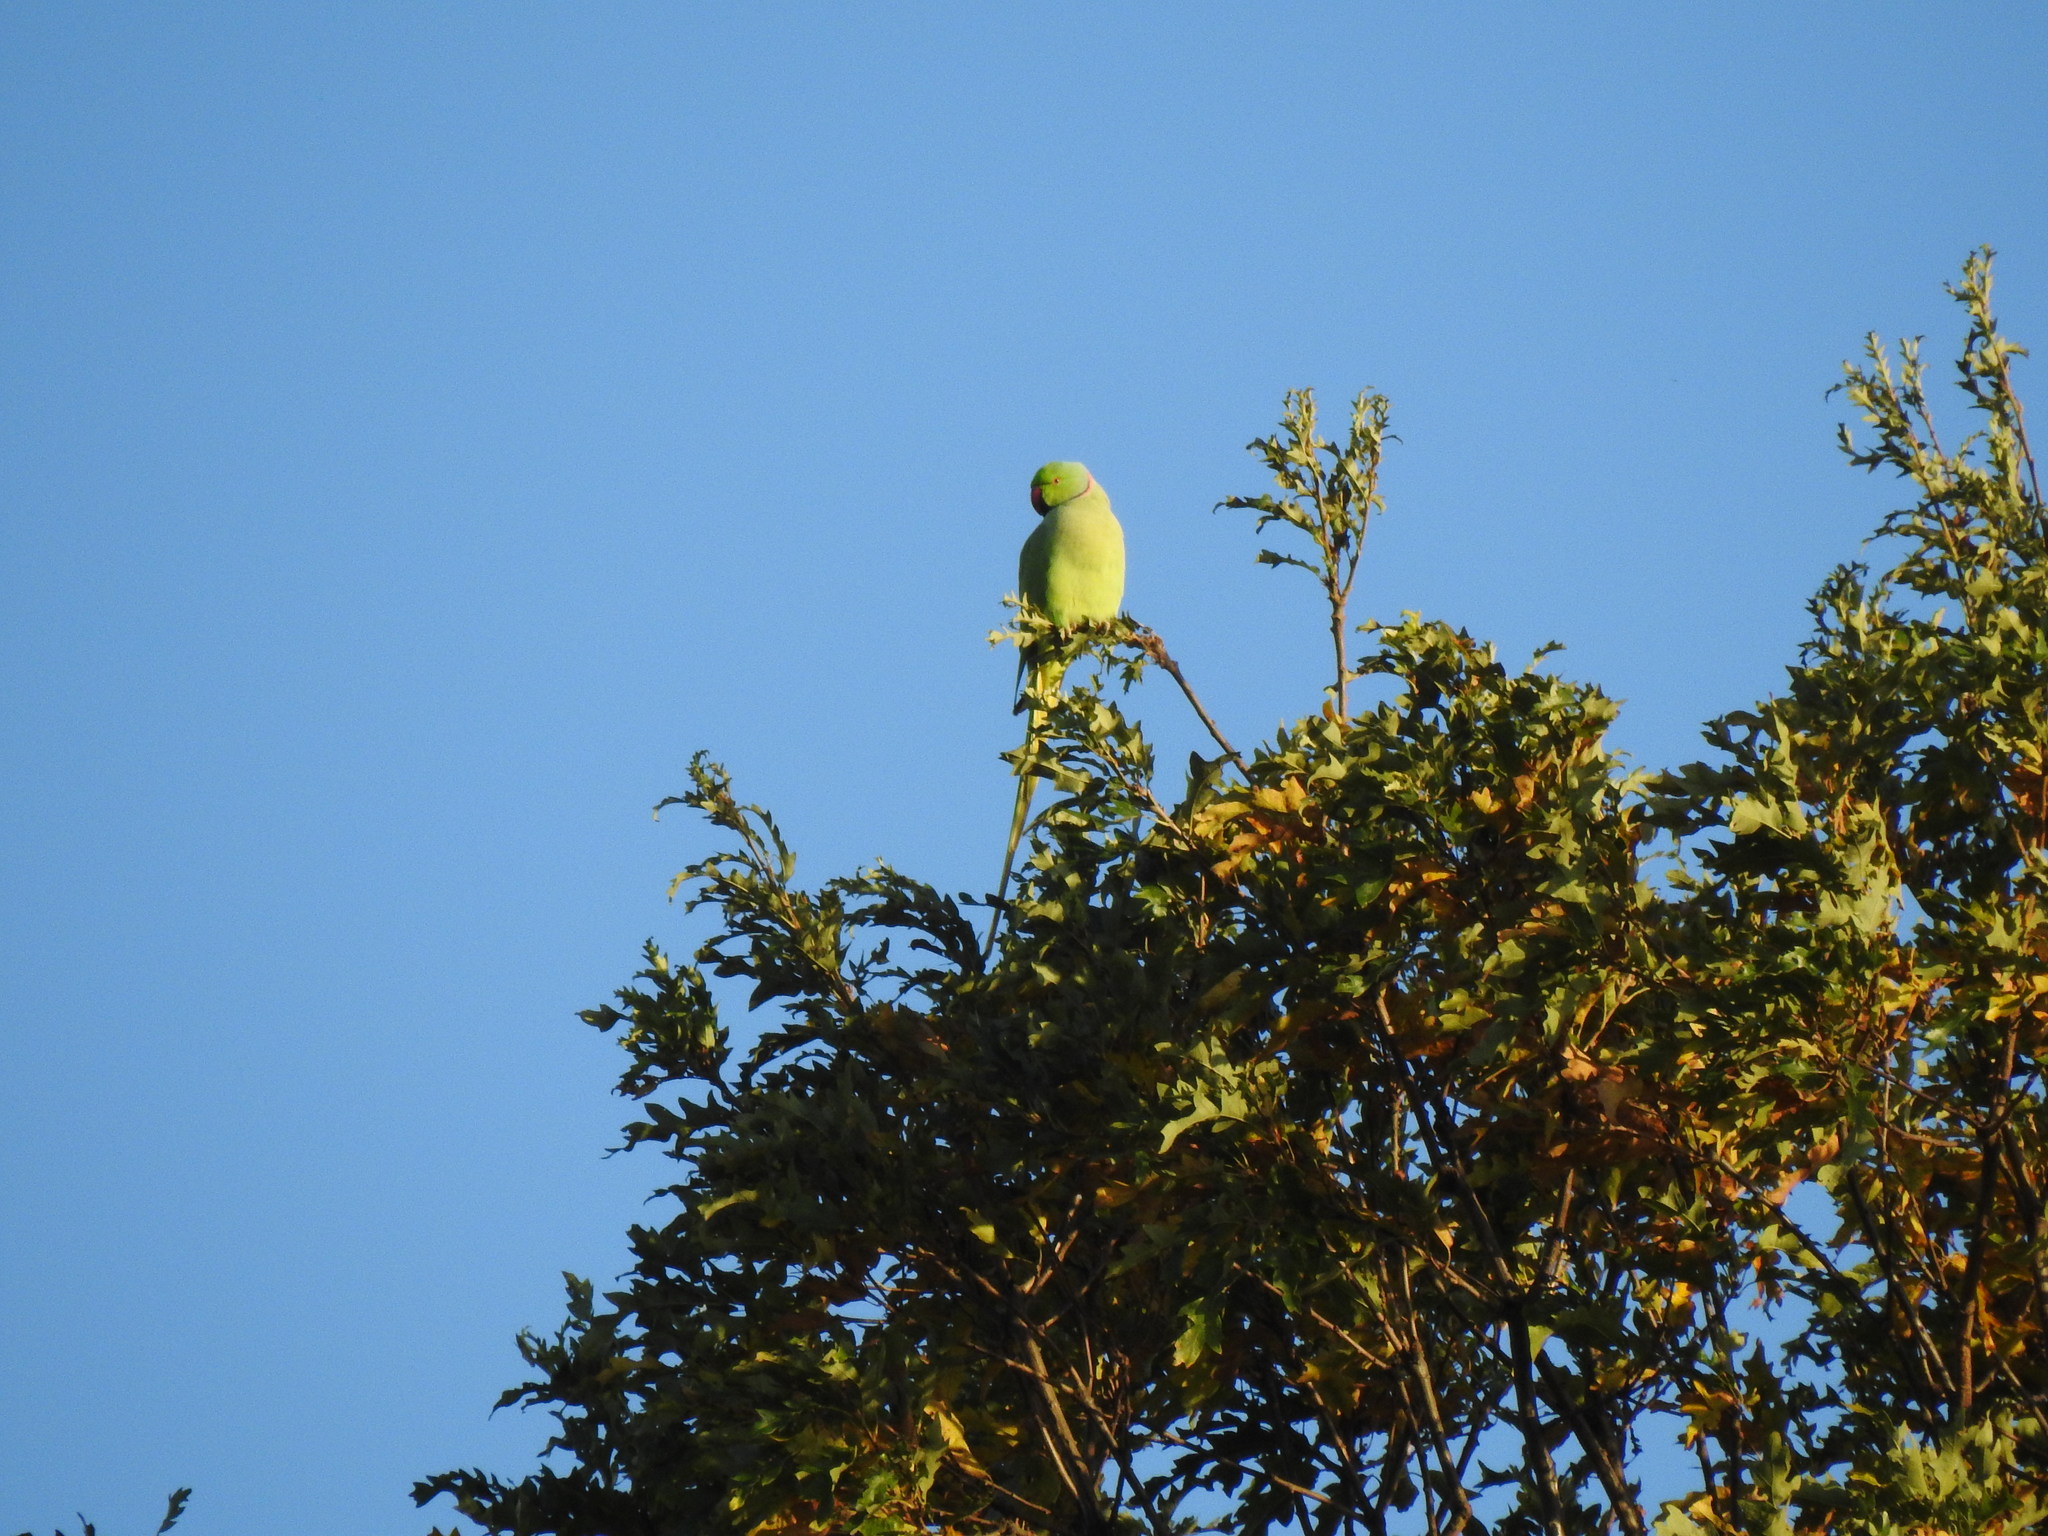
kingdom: Animalia
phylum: Chordata
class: Aves
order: Psittaciformes
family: Psittacidae
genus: Psittacula
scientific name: Psittacula krameri
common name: Rose-ringed parakeet
